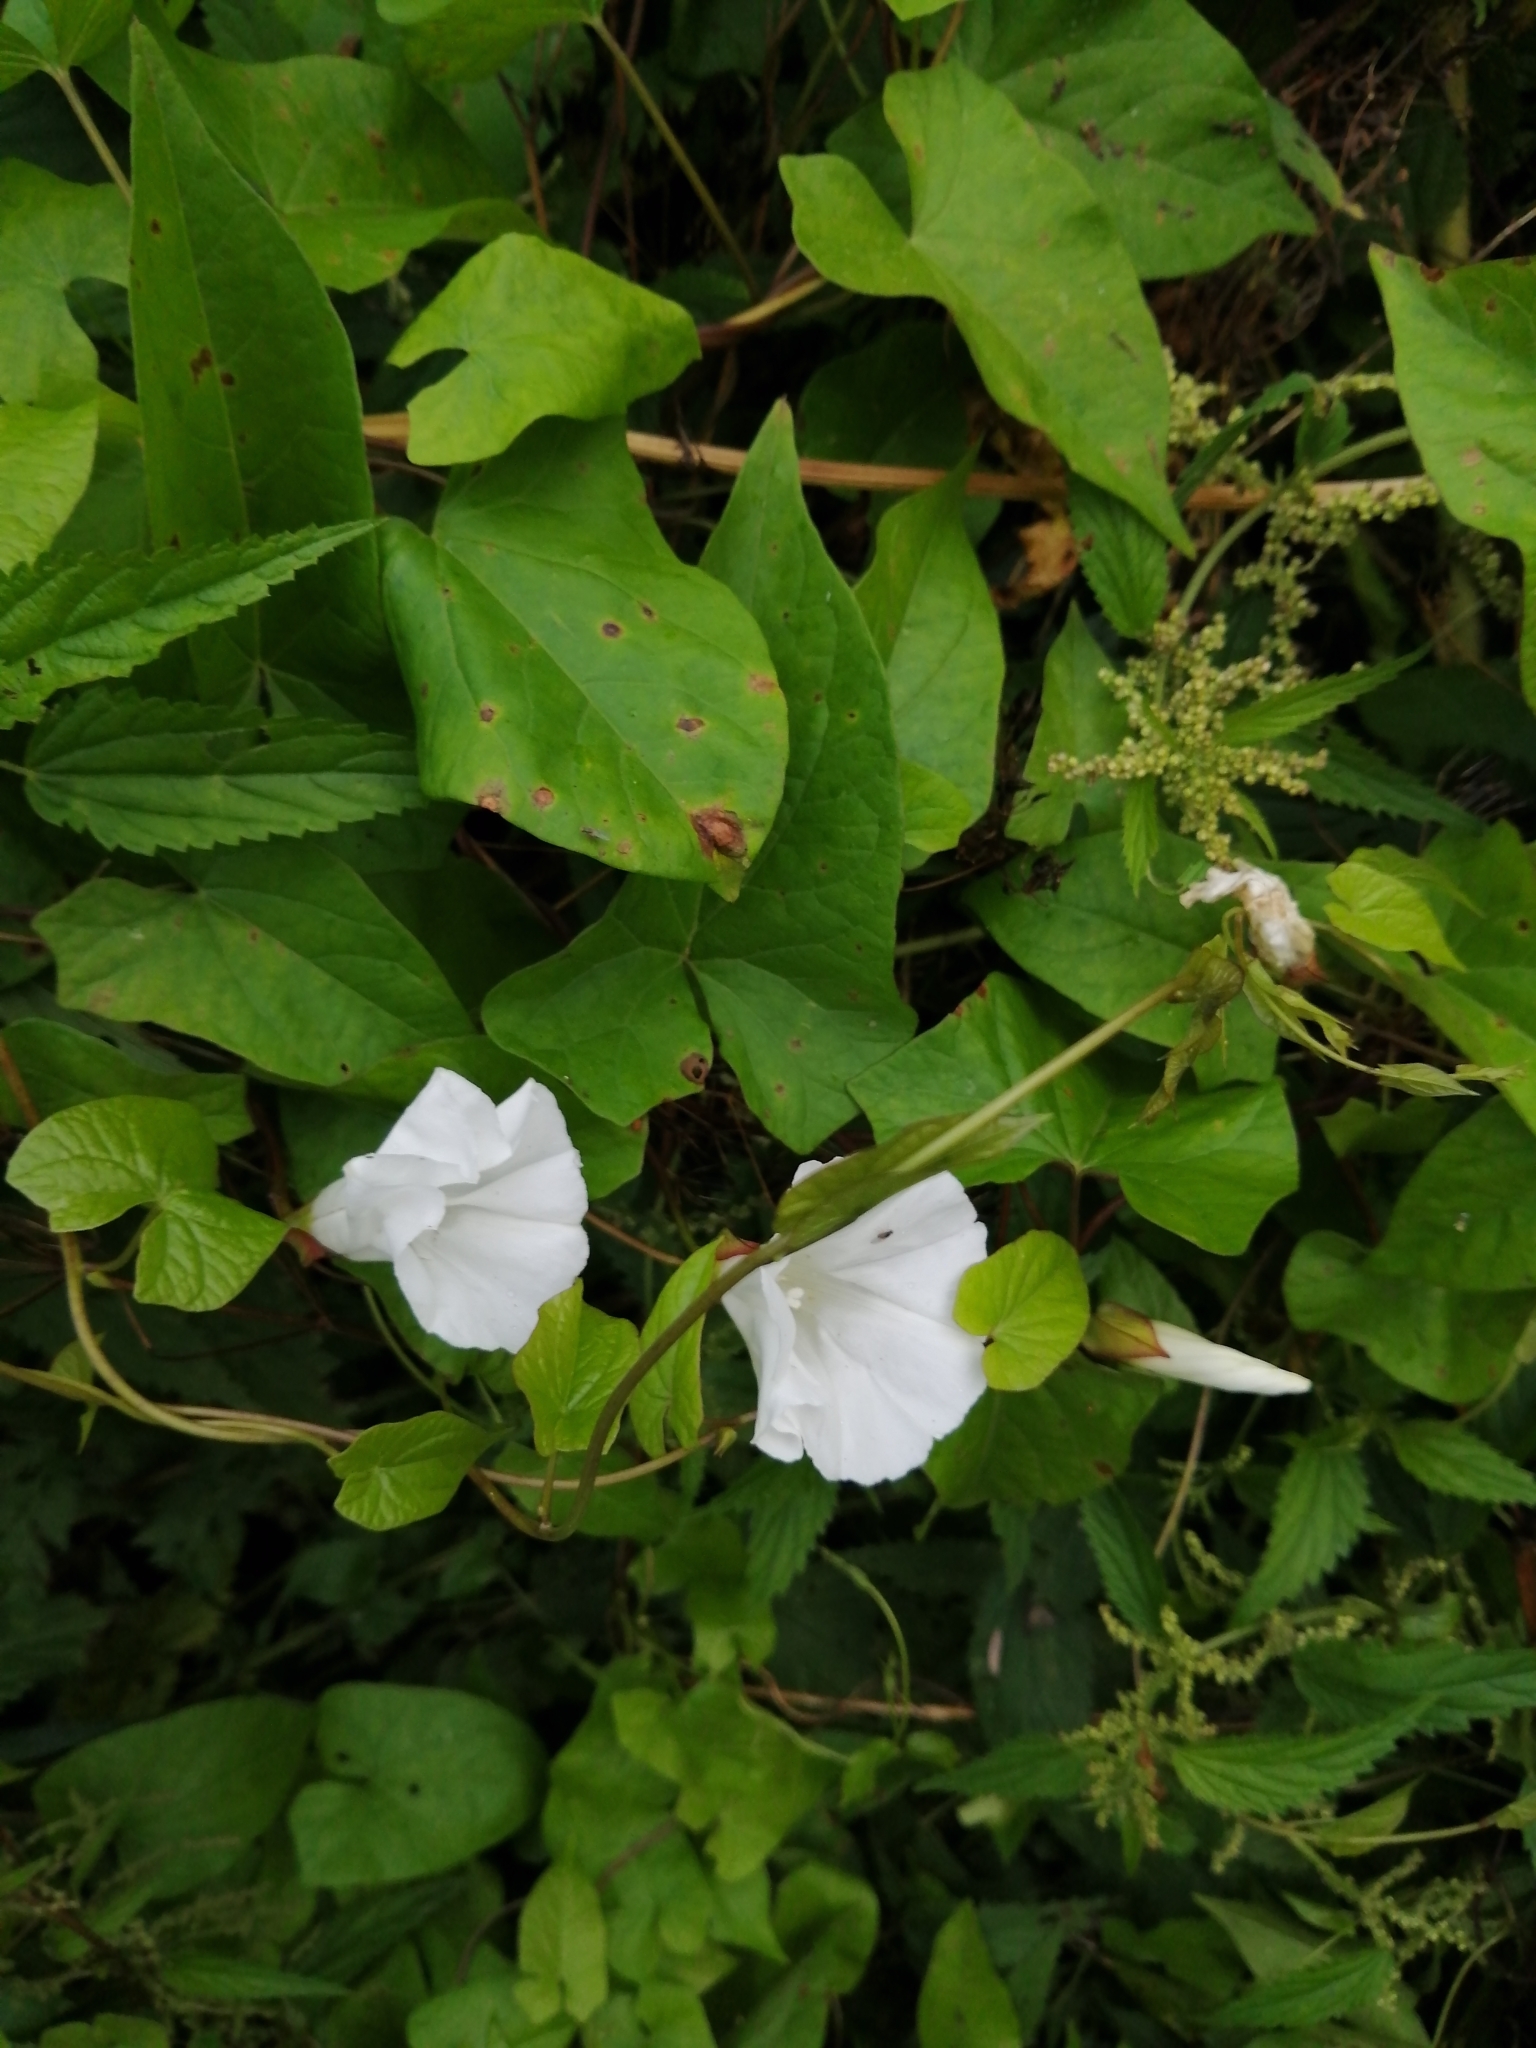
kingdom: Plantae
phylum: Tracheophyta
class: Magnoliopsida
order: Solanales
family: Convolvulaceae
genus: Calystegia
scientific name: Calystegia sepium
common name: Hedge bindweed
